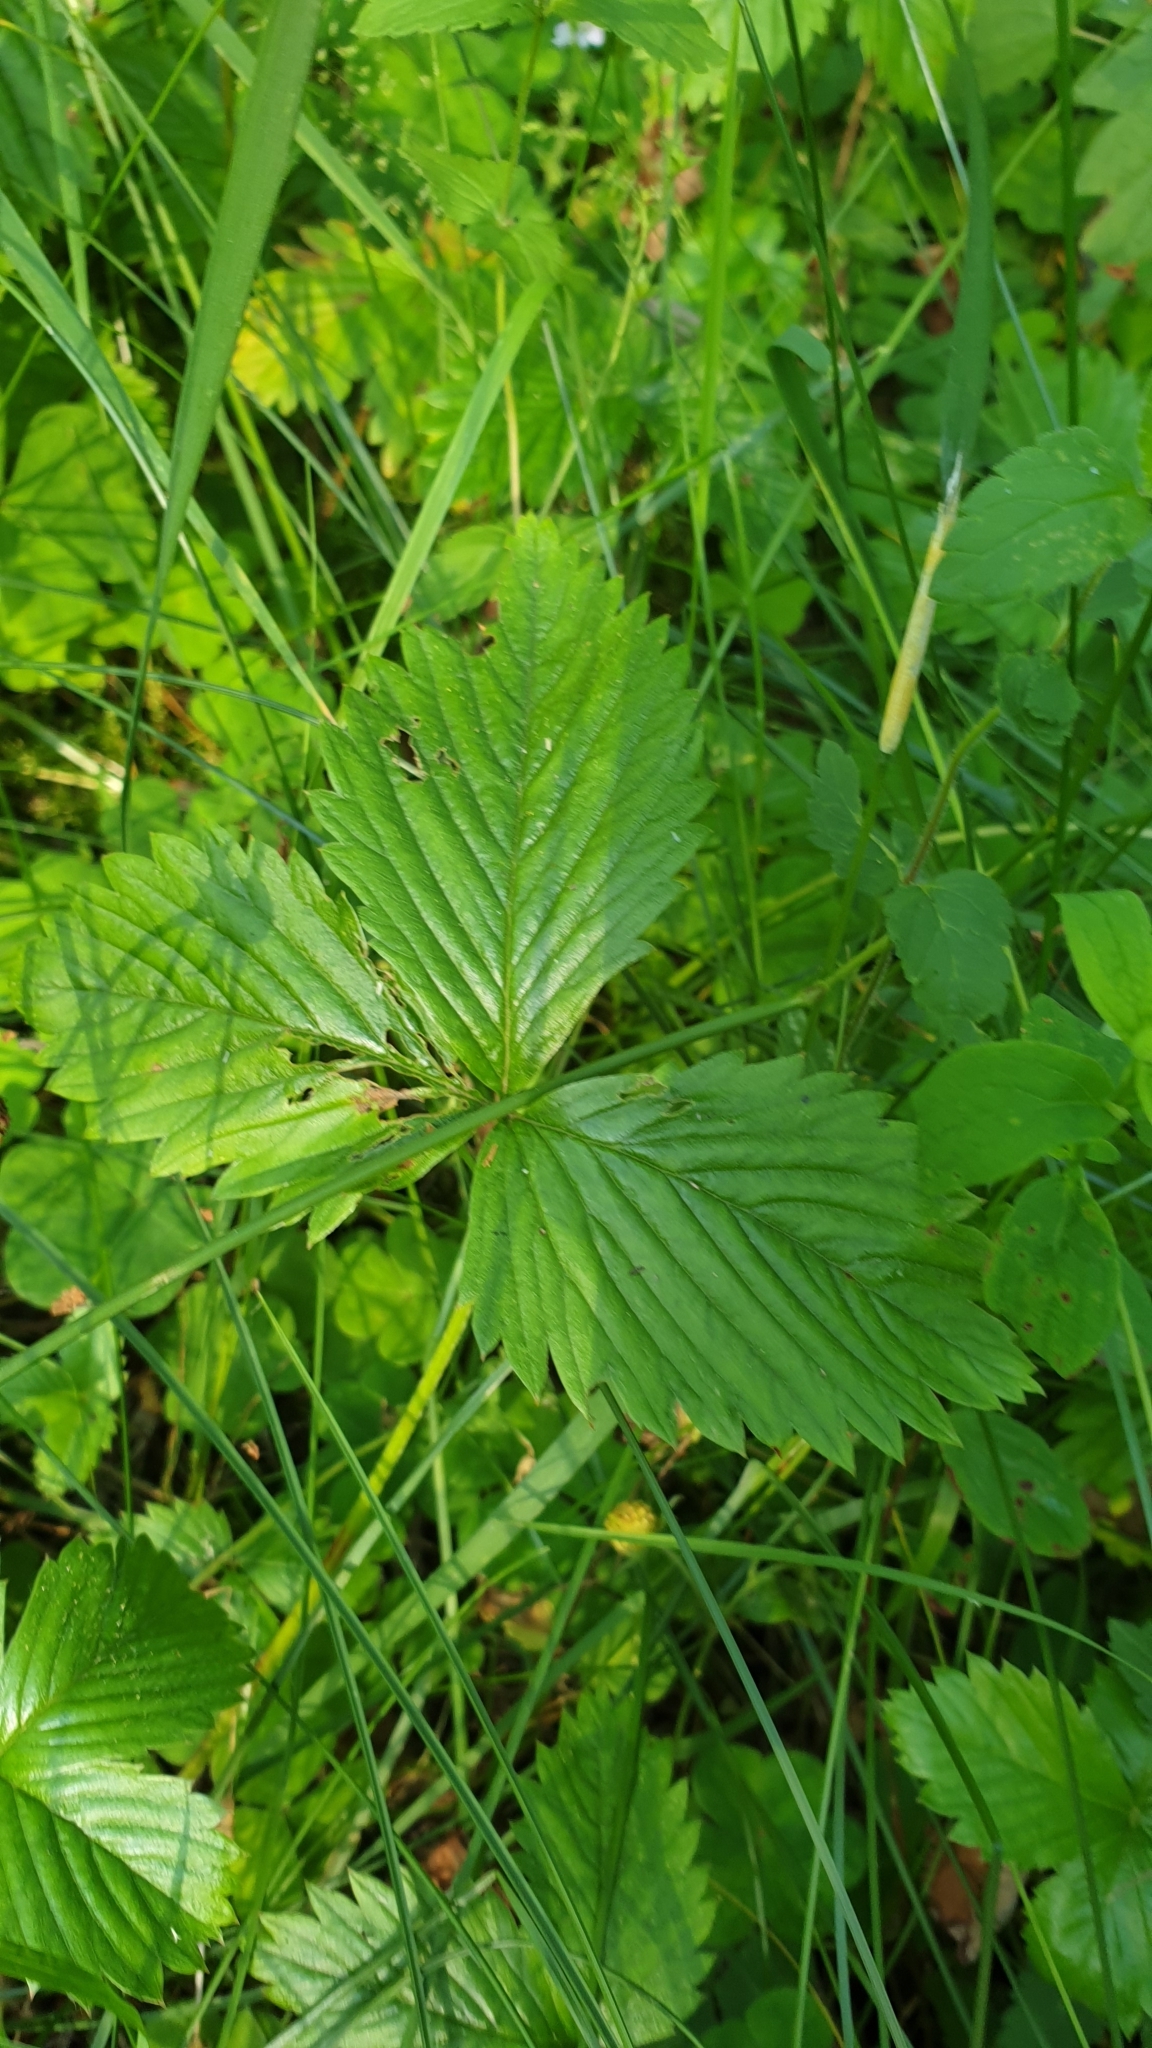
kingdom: Plantae
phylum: Tracheophyta
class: Magnoliopsida
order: Rosales
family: Rosaceae
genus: Fragaria
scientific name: Fragaria vesca
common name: Wild strawberry
